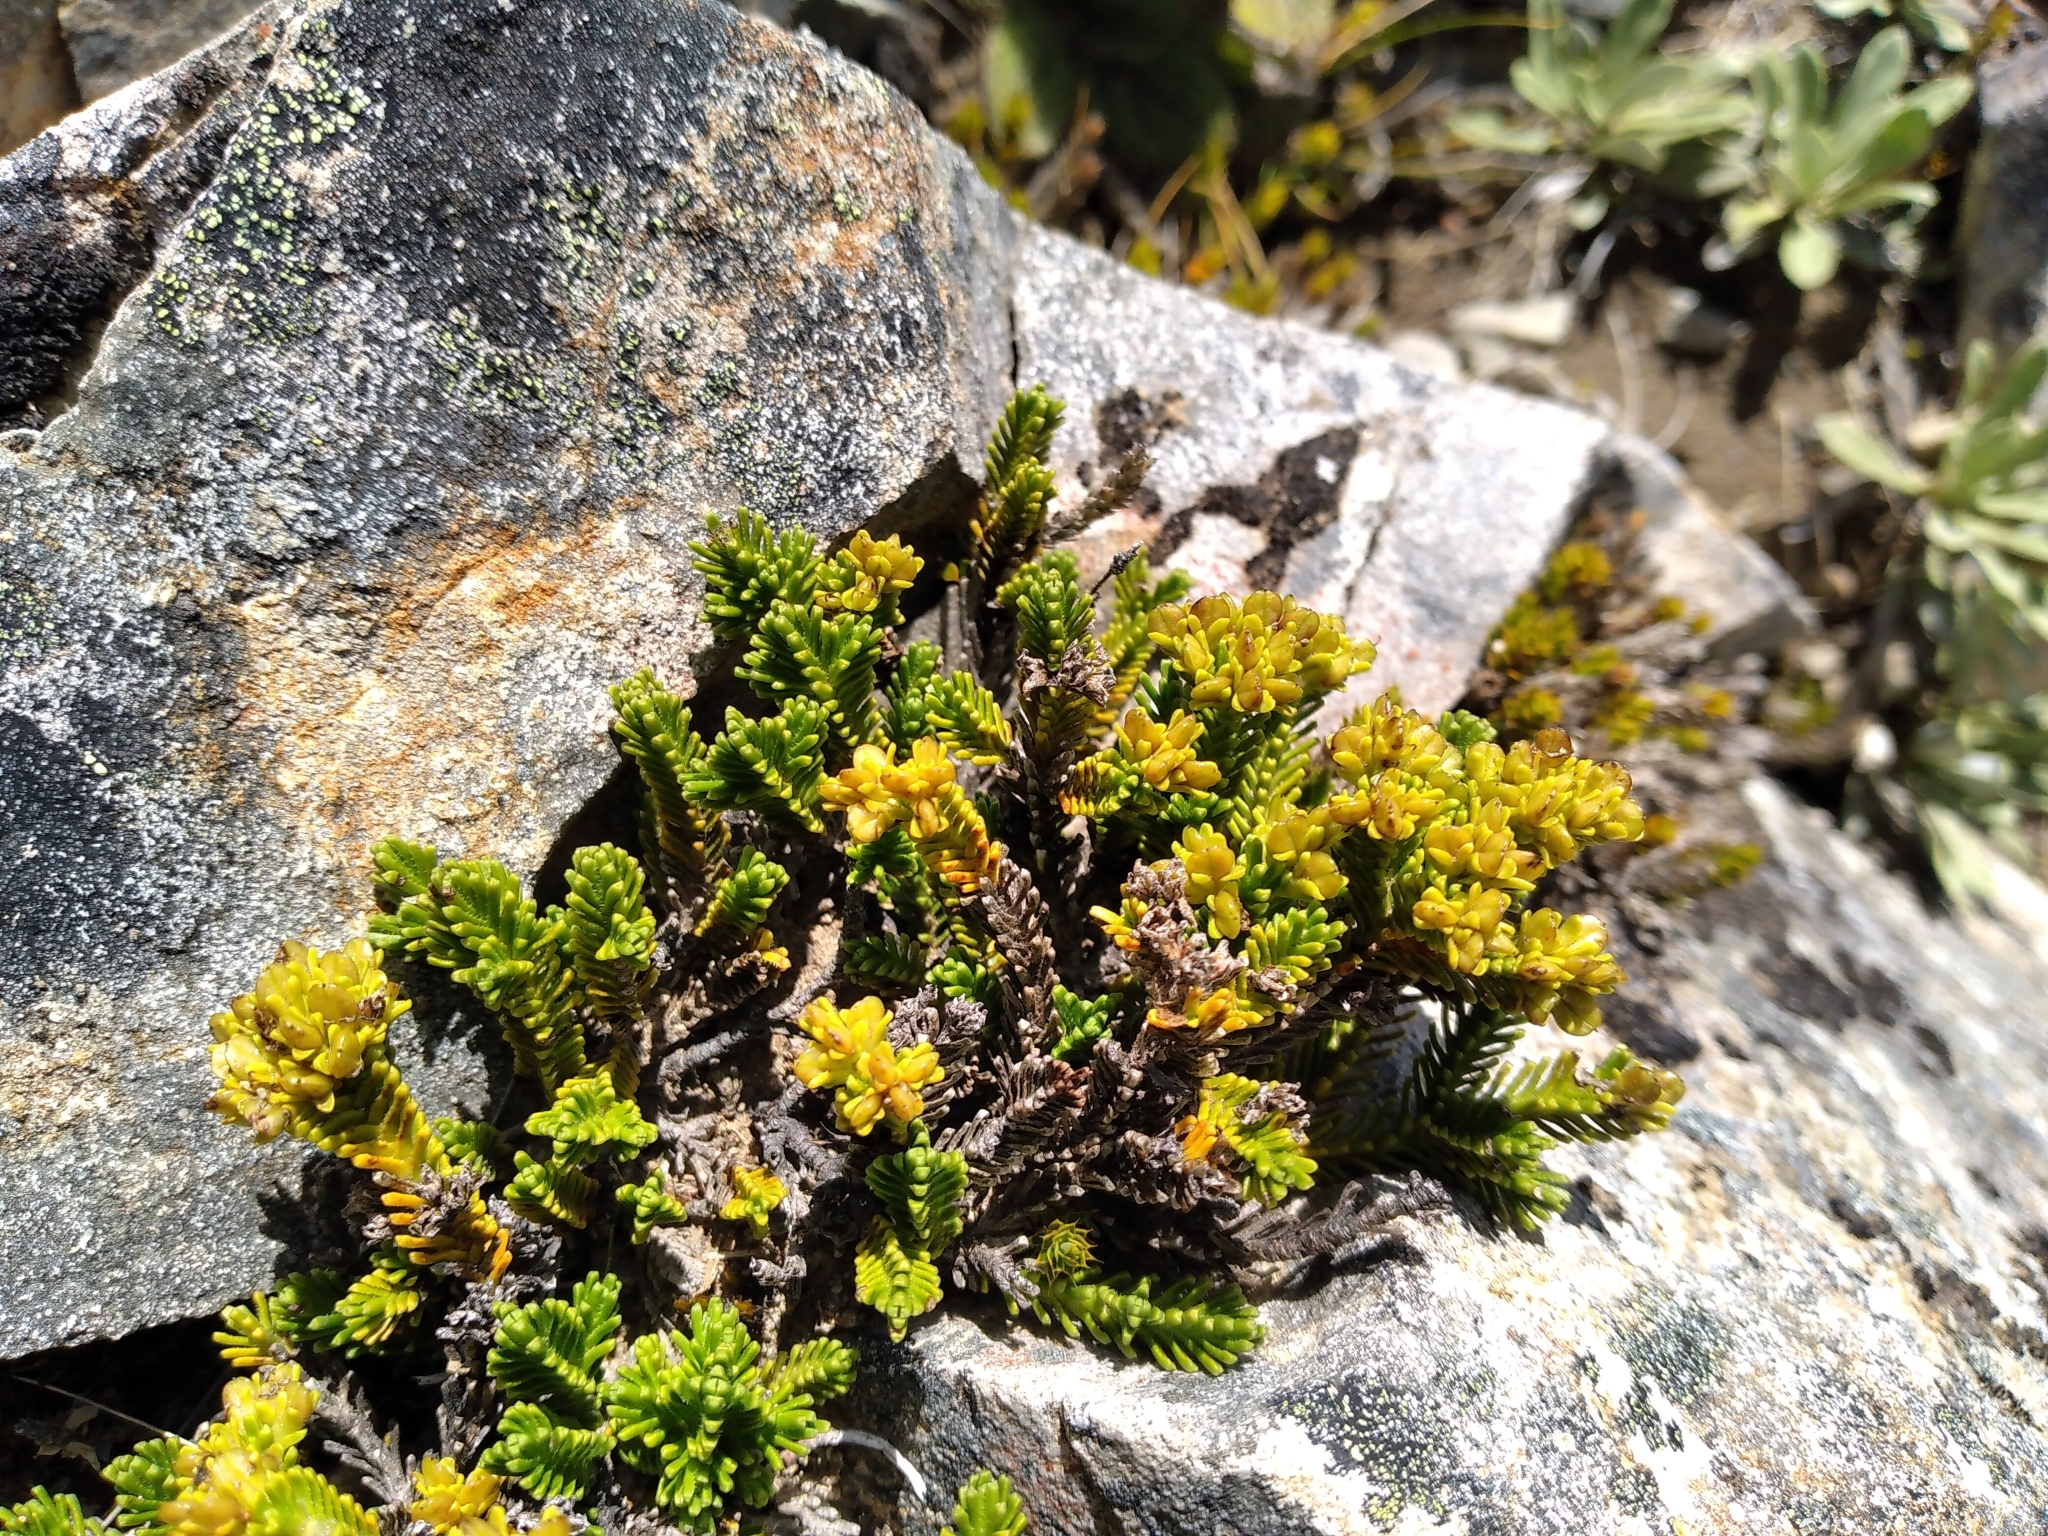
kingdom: Plantae
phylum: Tracheophyta
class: Magnoliopsida
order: Lamiales
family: Plantaginaceae
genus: Veronica
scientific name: Veronica hookeri
